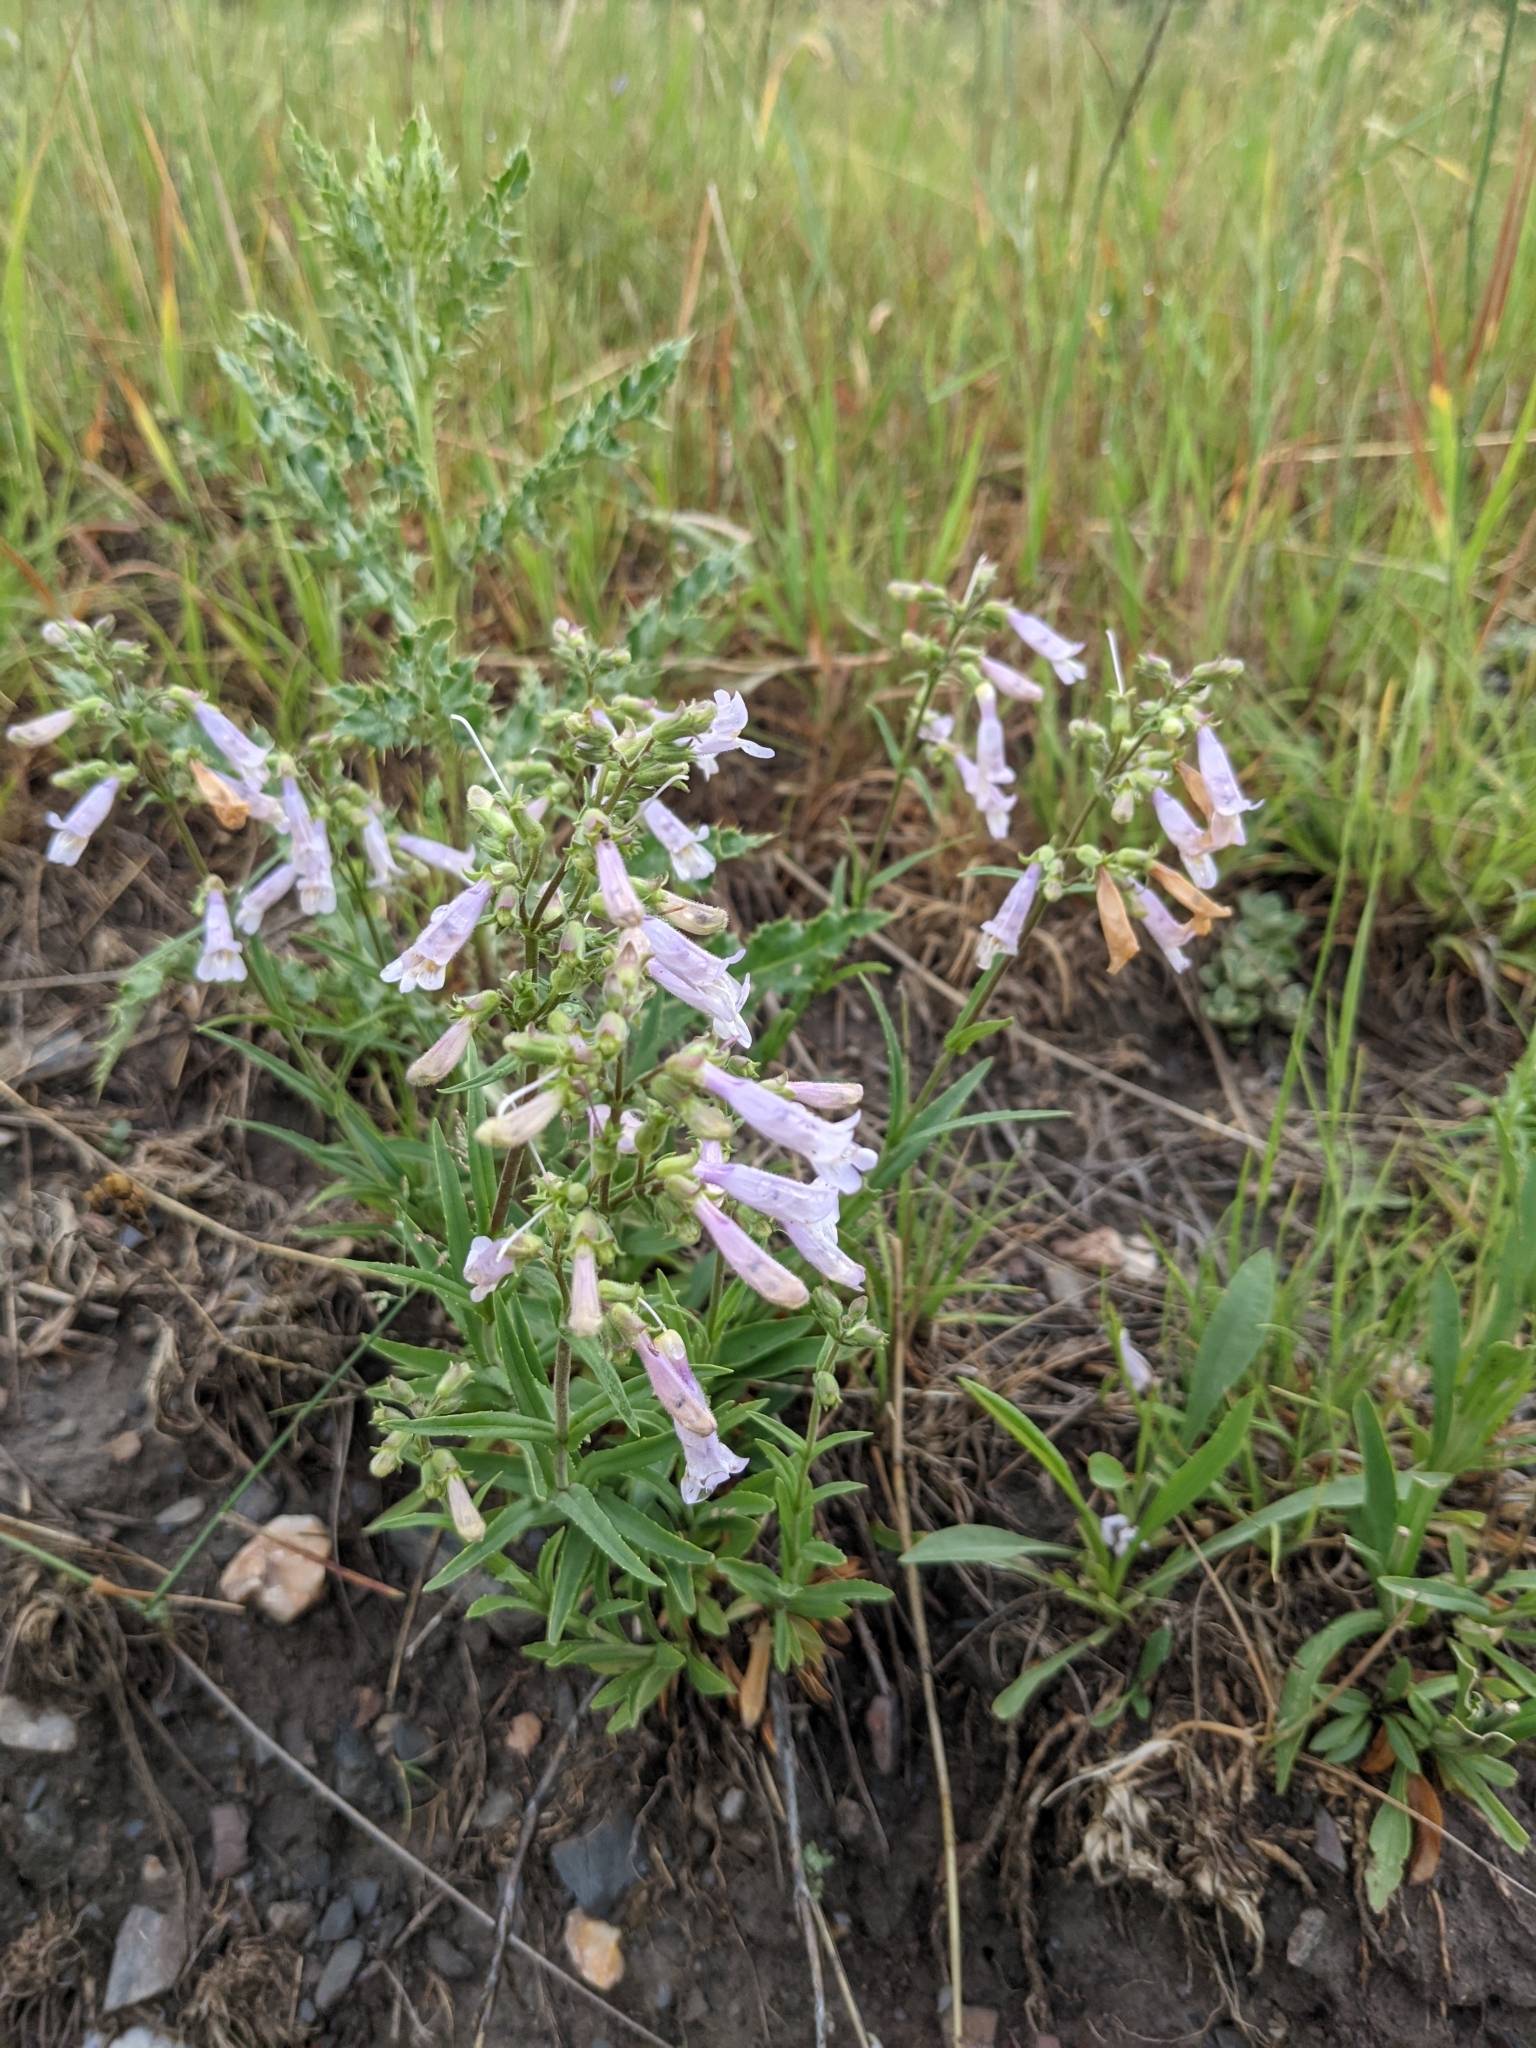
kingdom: Plantae
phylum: Tracheophyta
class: Magnoliopsida
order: Lamiales
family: Plantaginaceae
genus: Penstemon
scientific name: Penstemon gracilis
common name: Slender beardtongue
